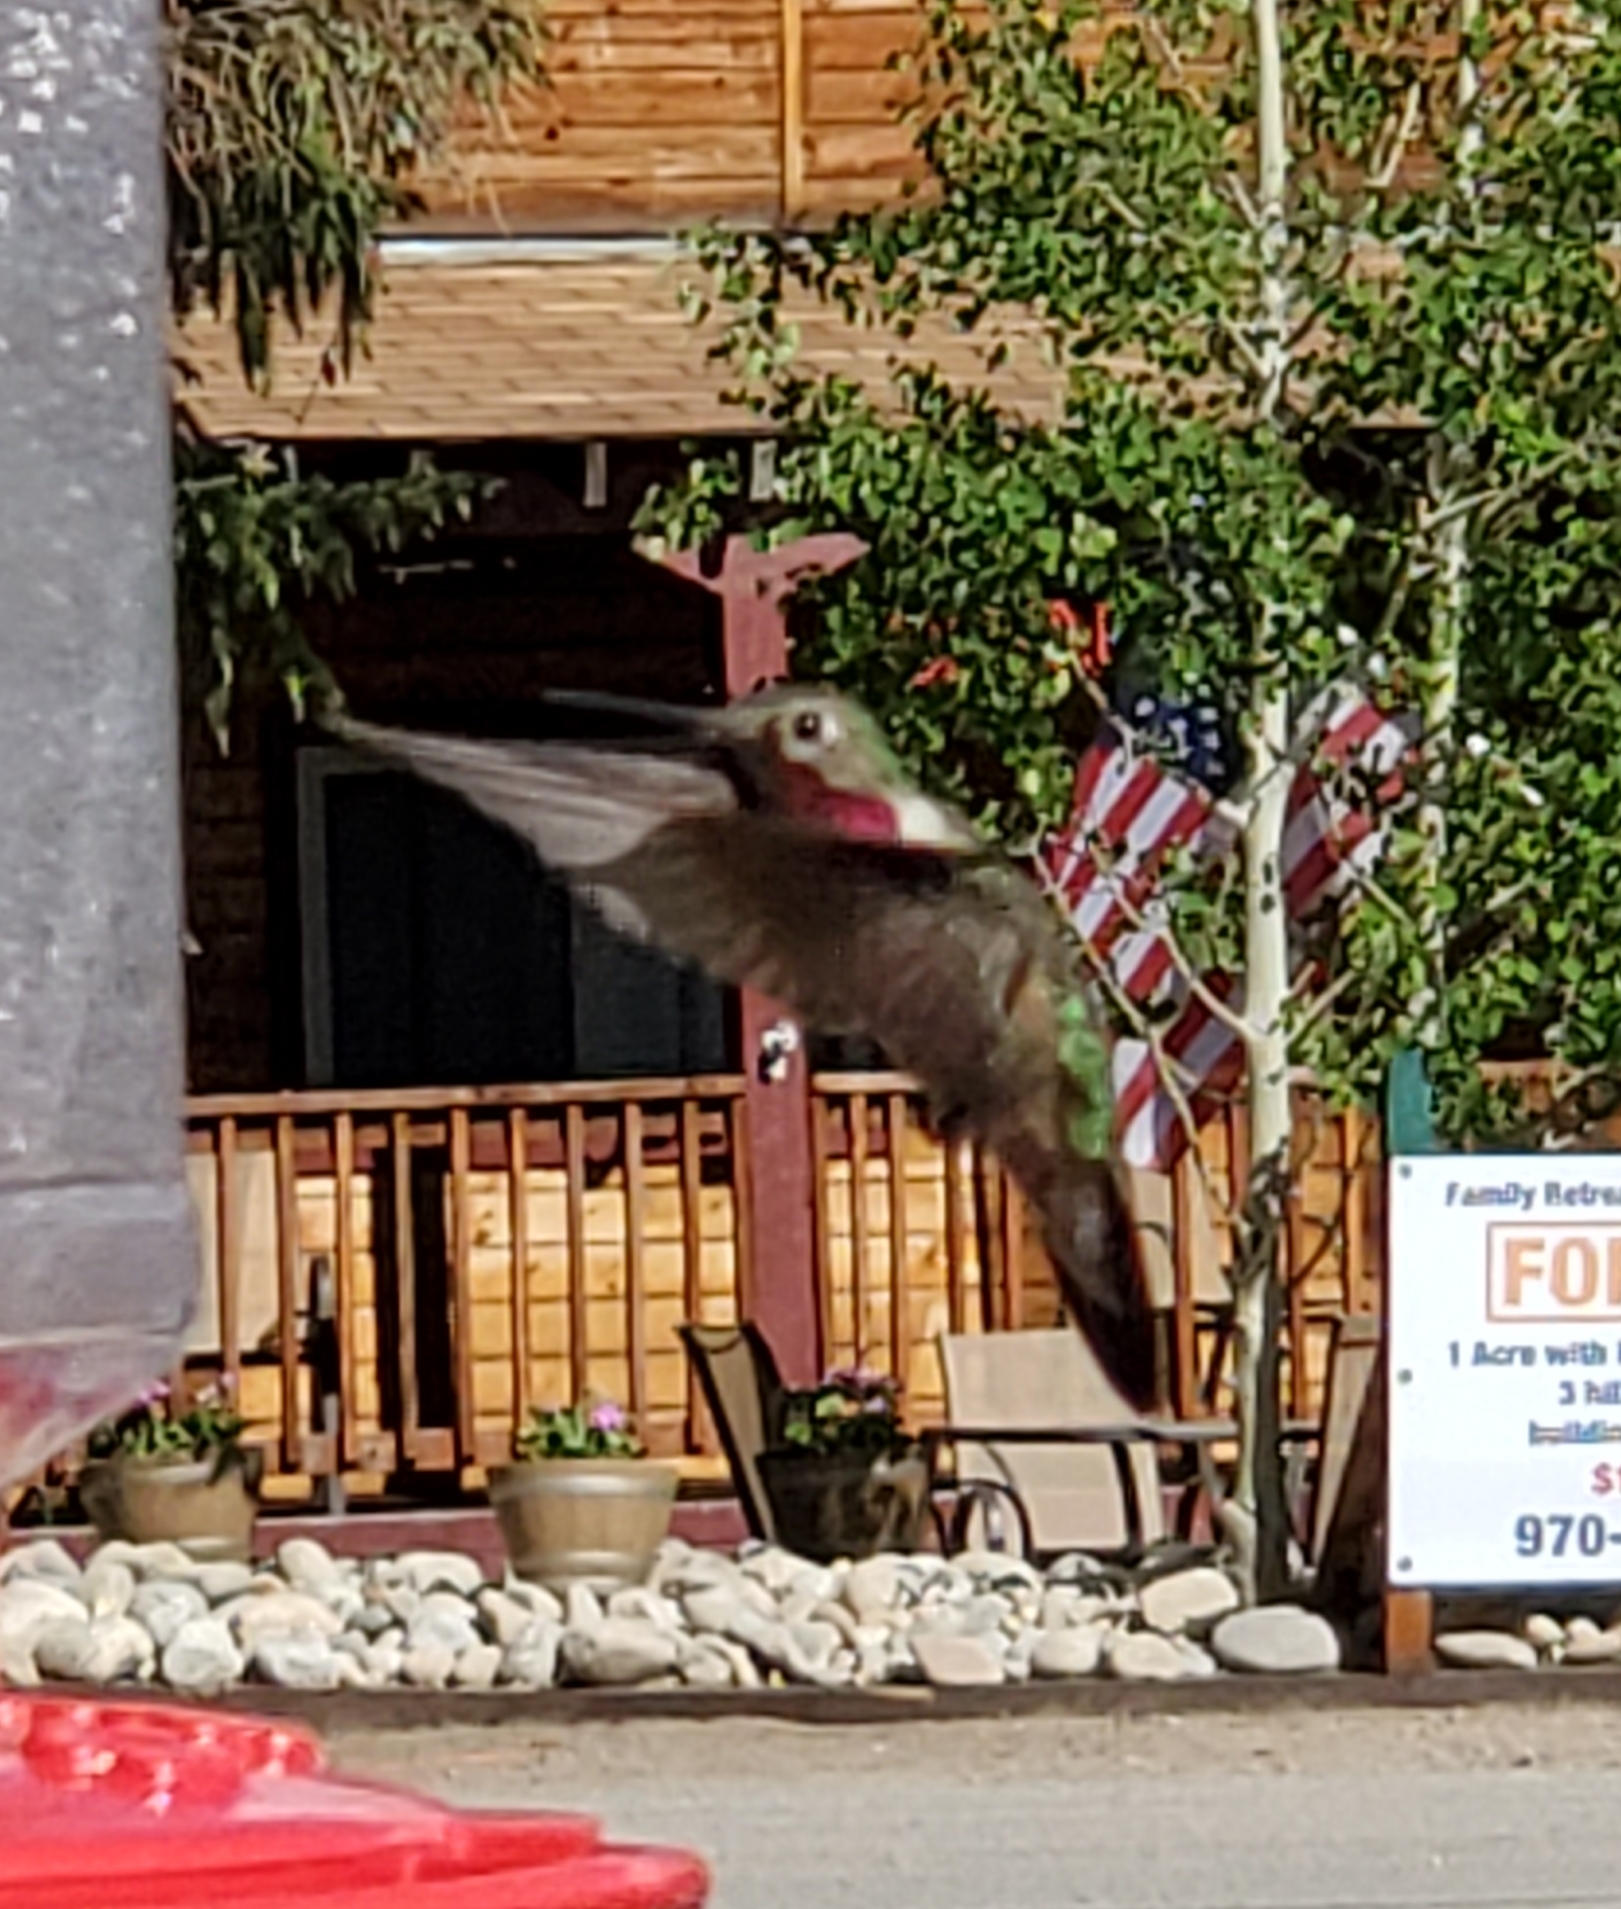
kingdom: Animalia
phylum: Chordata
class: Aves
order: Apodiformes
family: Trochilidae
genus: Selasphorus
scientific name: Selasphorus platycercus
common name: Broad-tailed hummingbird
